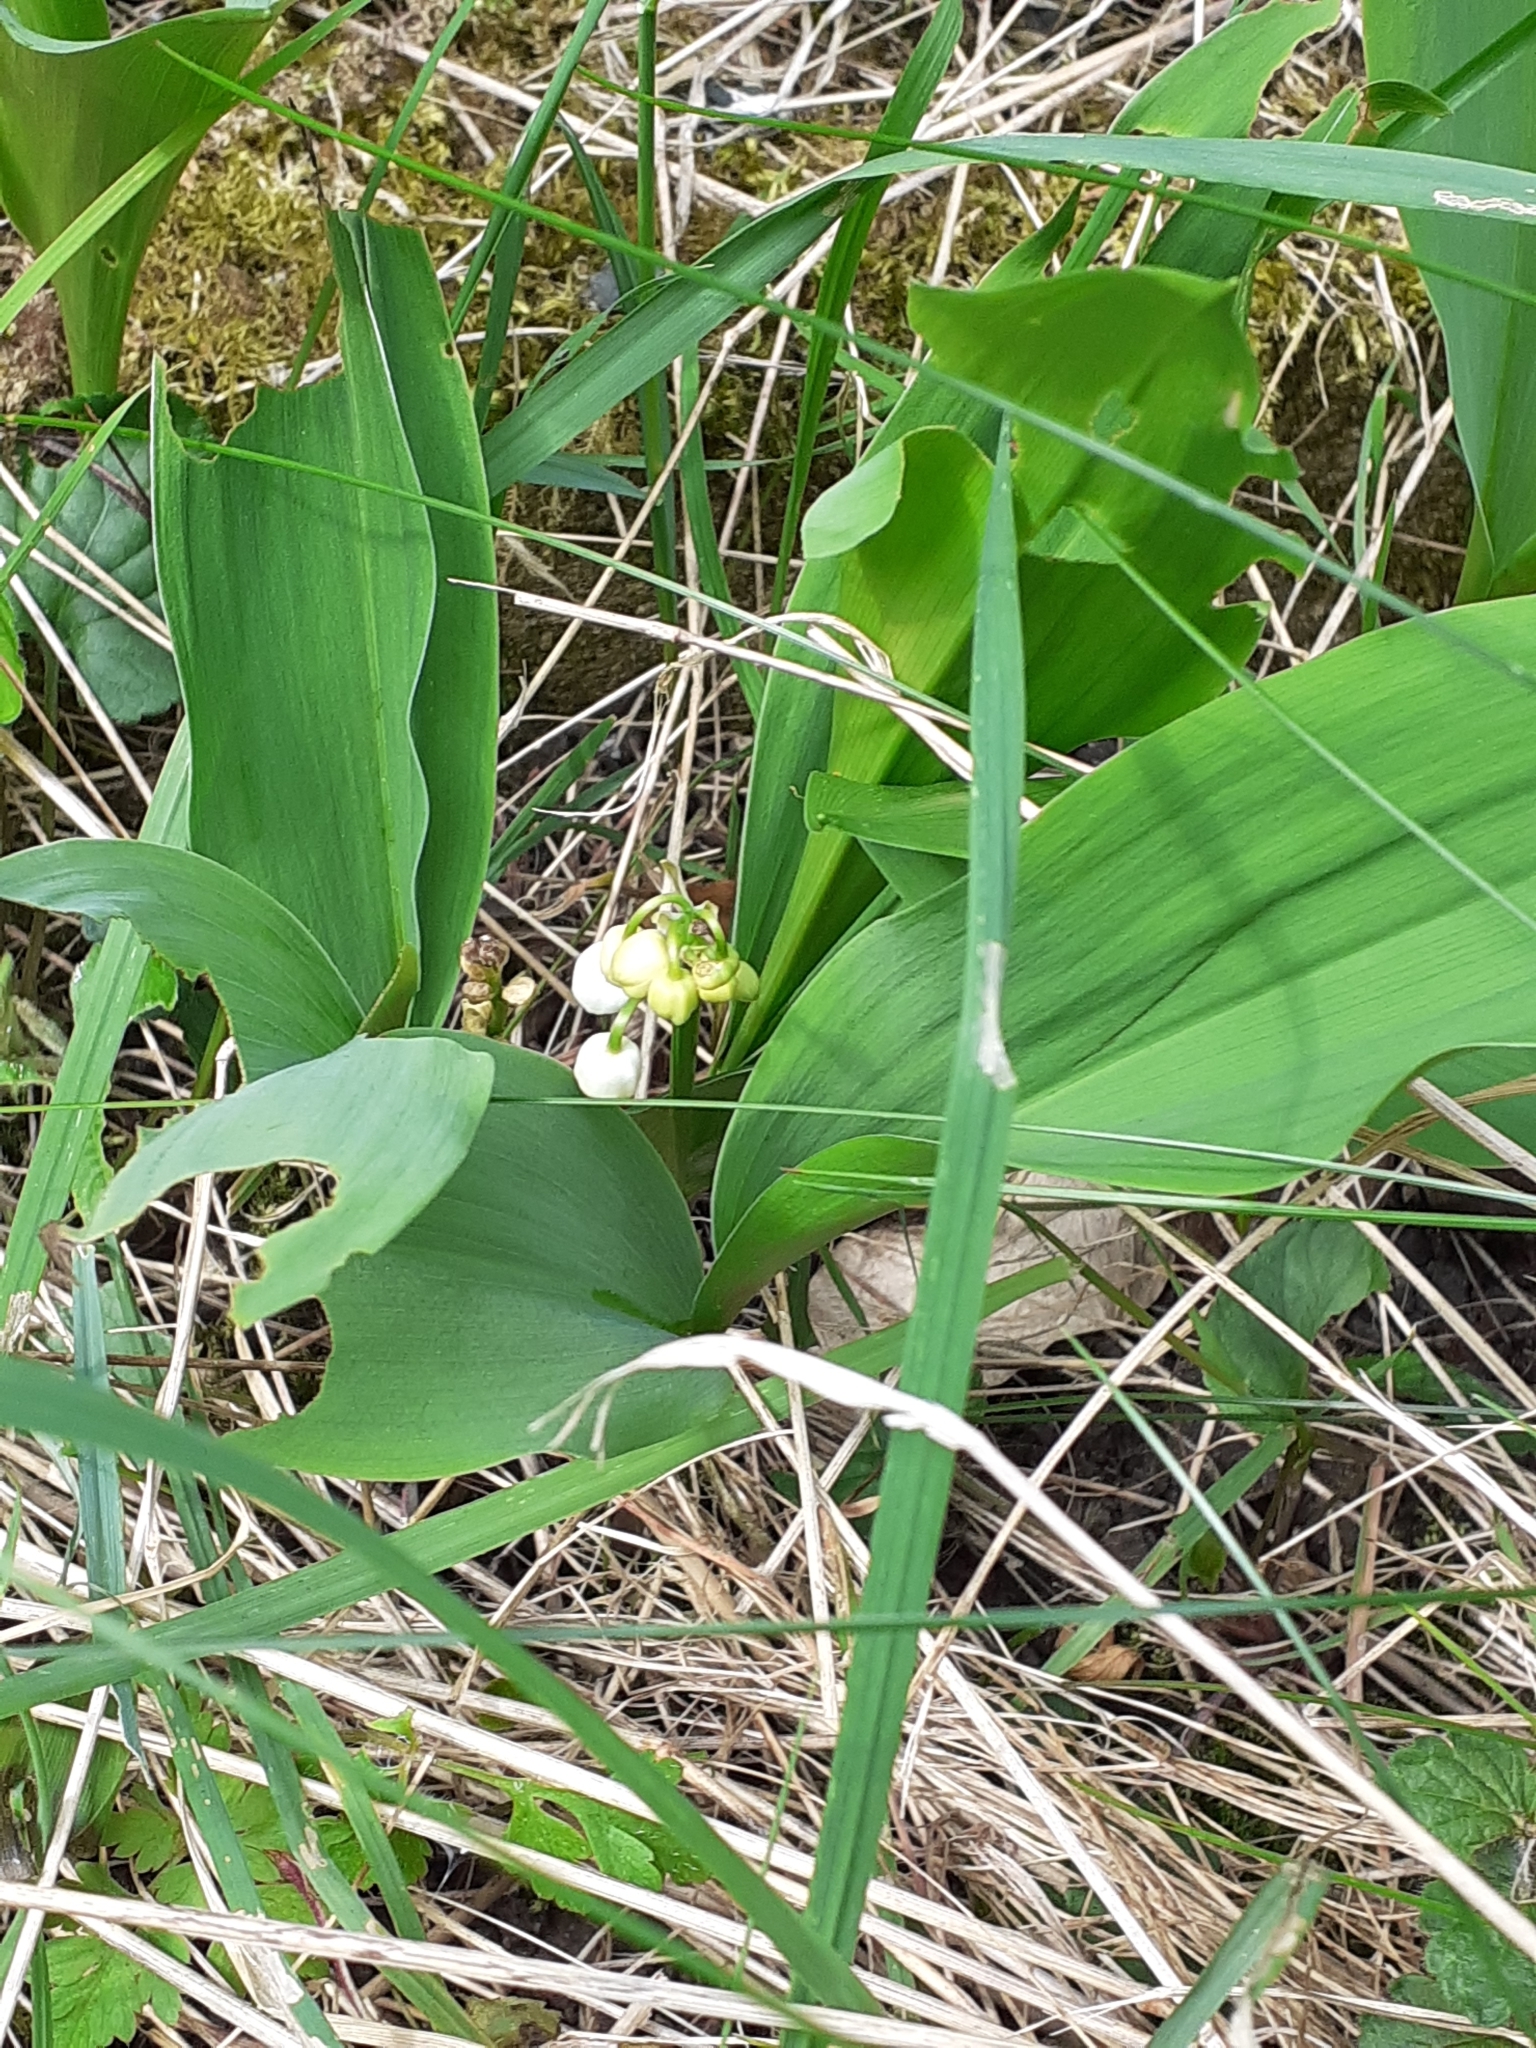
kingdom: Plantae
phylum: Tracheophyta
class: Liliopsida
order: Asparagales
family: Asparagaceae
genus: Convallaria
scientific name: Convallaria majalis
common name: Lily-of-the-valley
